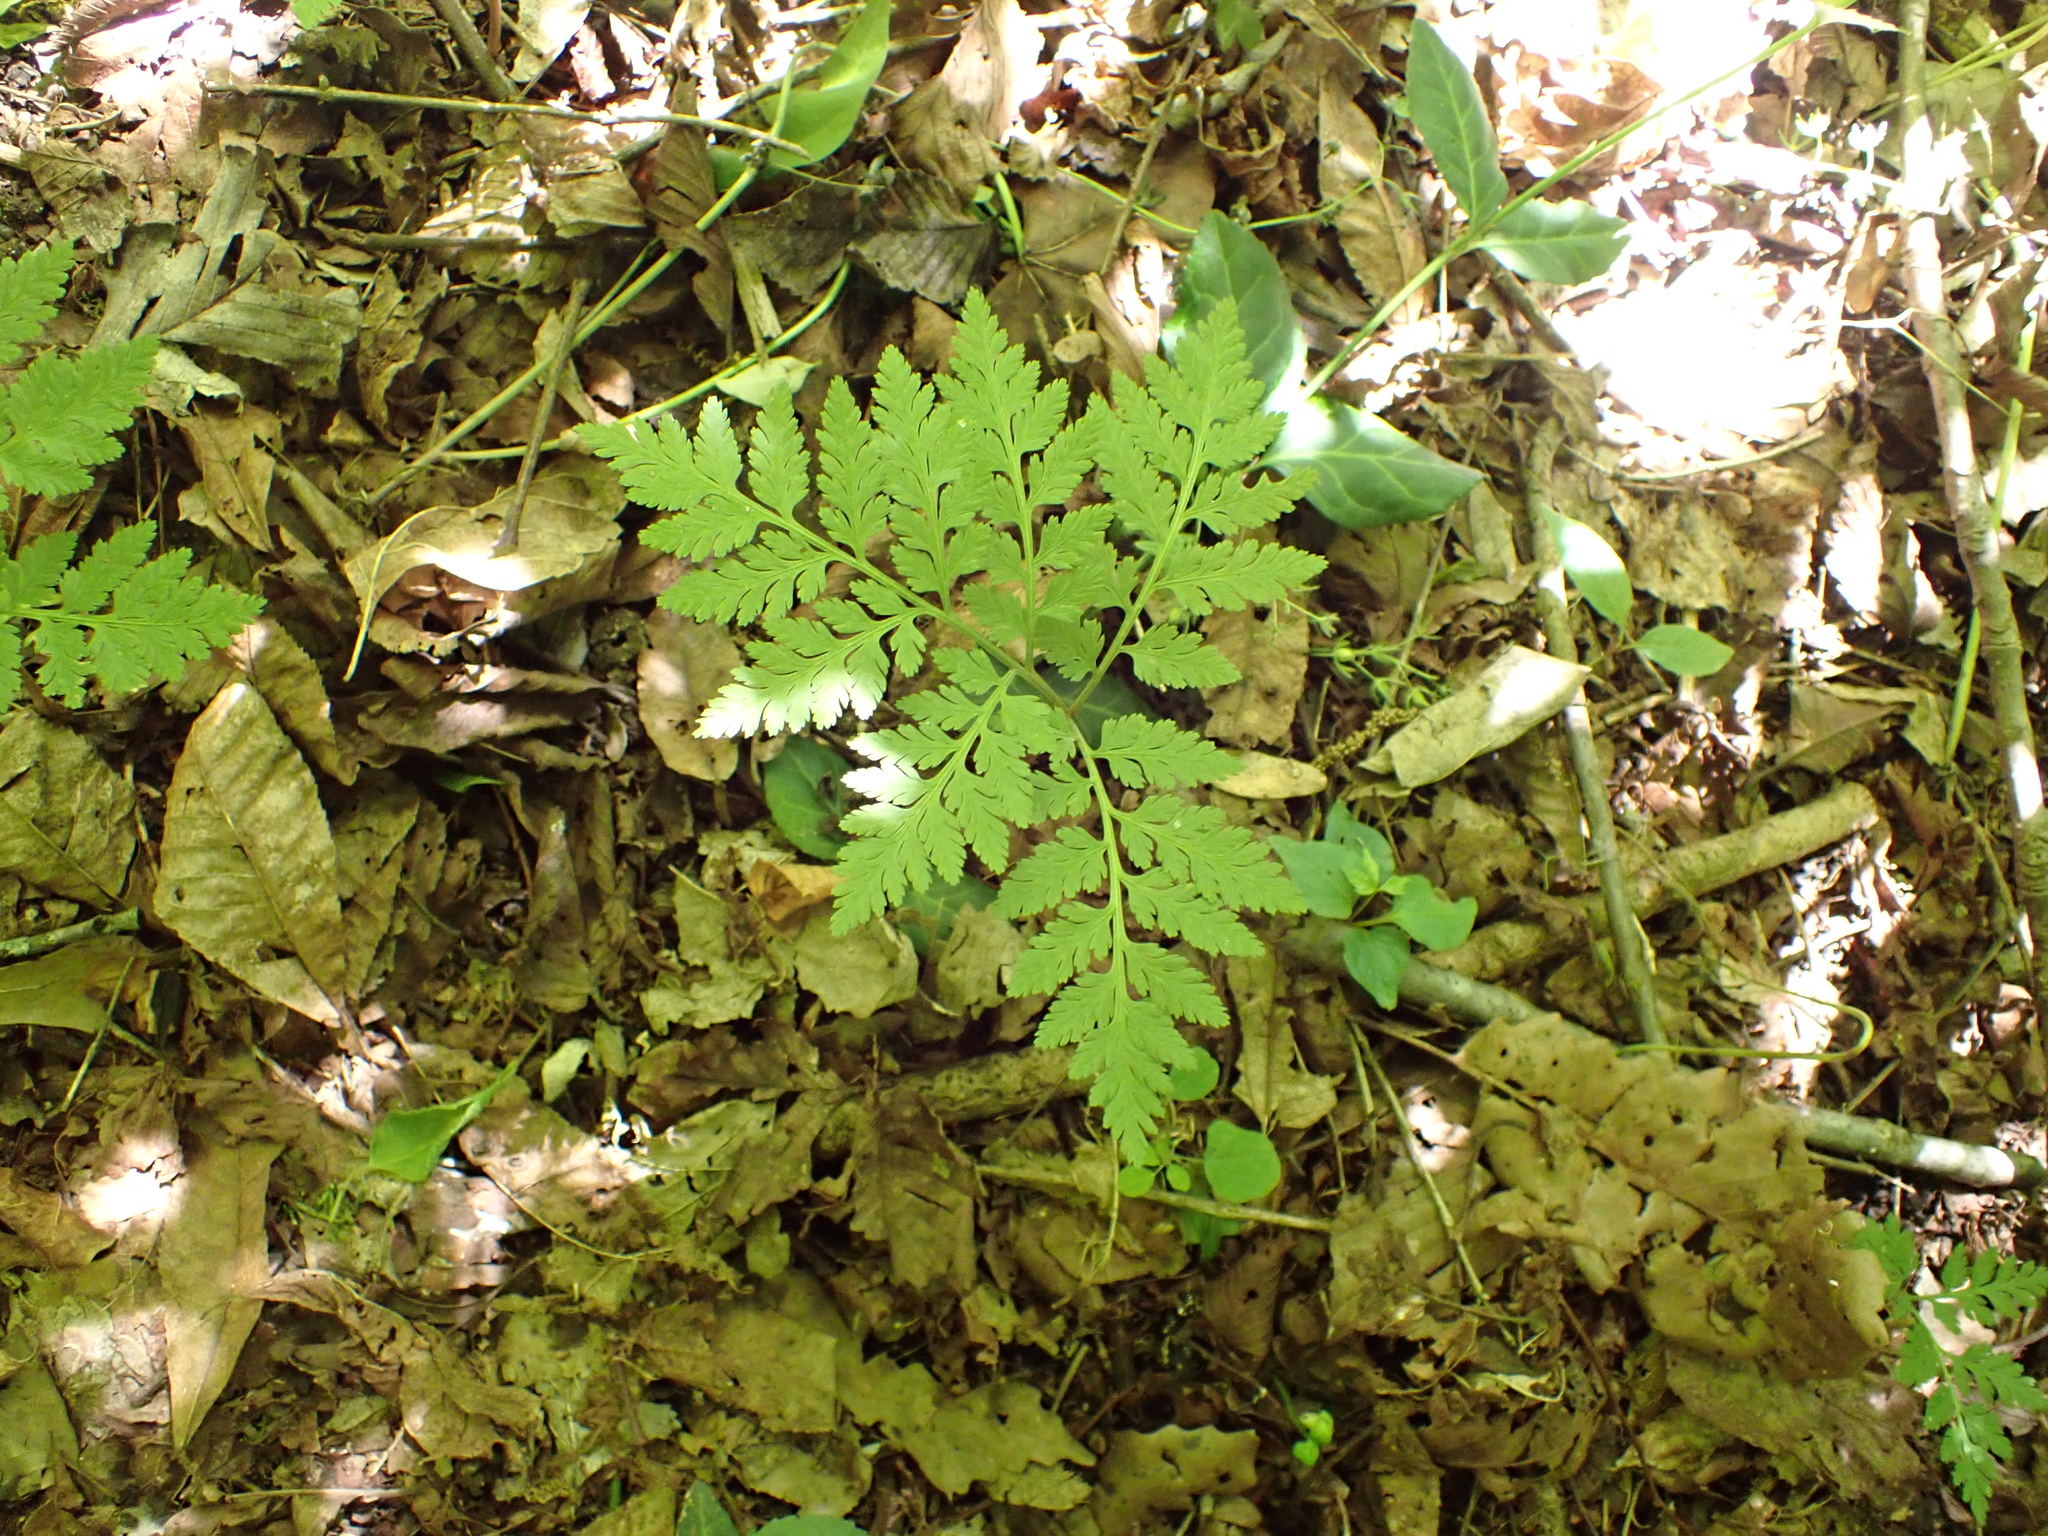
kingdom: Plantae
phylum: Tracheophyta
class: Polypodiopsida
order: Ophioglossales
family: Ophioglossaceae
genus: Botrypus
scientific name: Botrypus virginianus
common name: Common grapefern
